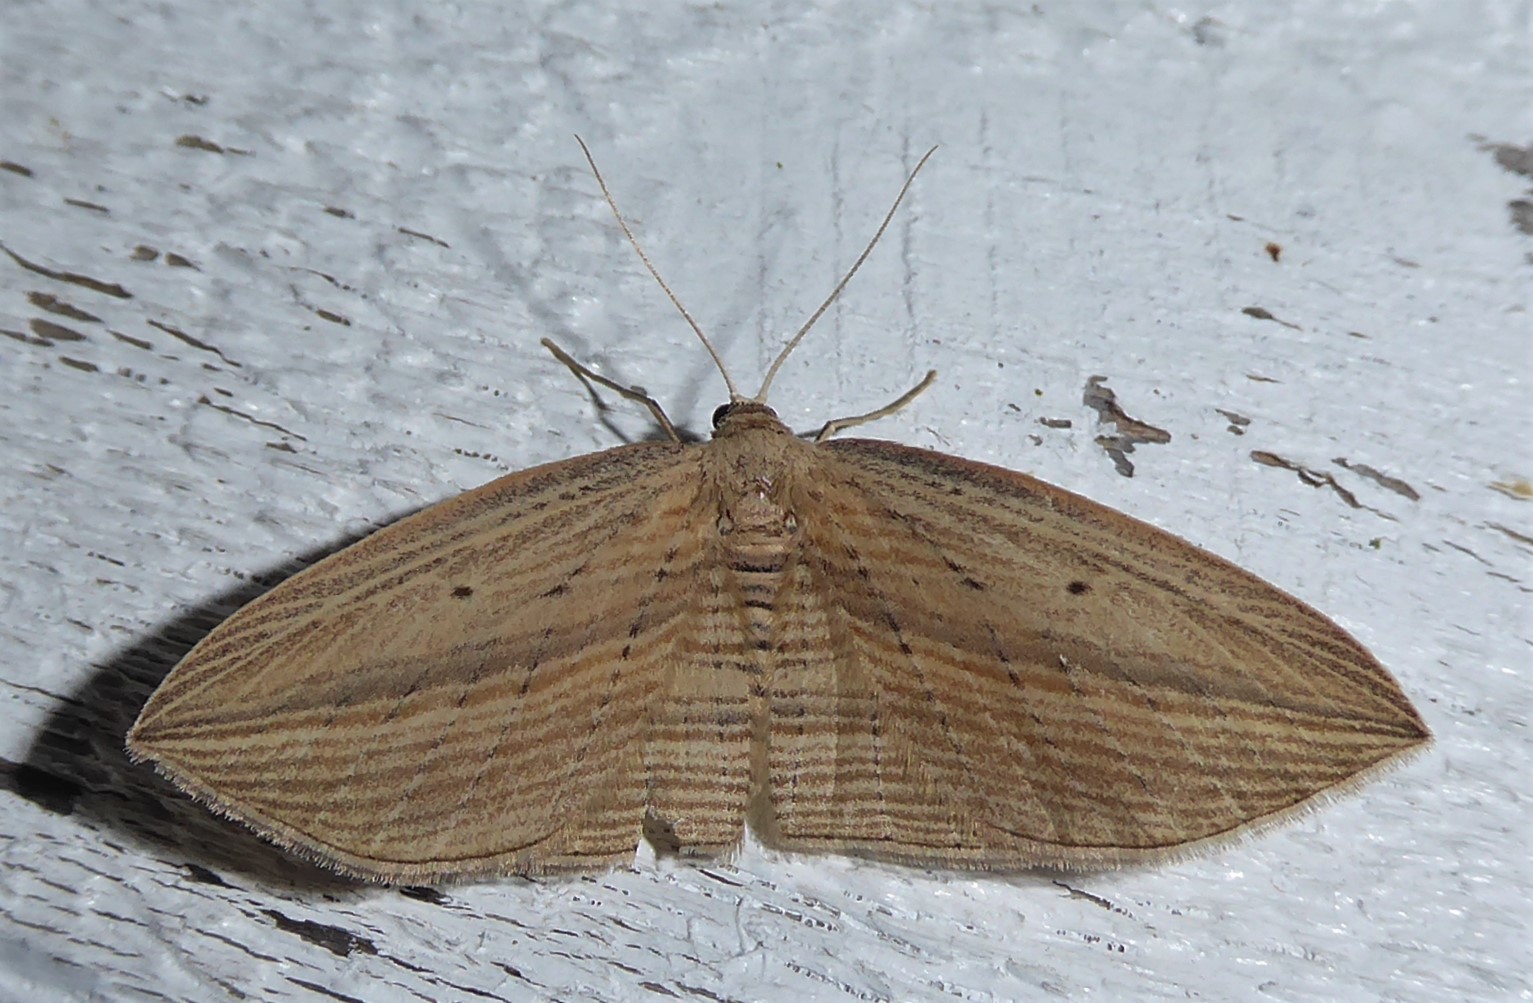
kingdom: Animalia
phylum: Arthropoda
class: Insecta
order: Lepidoptera
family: Geometridae
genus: Epiphryne
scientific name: Epiphryne verriculata
